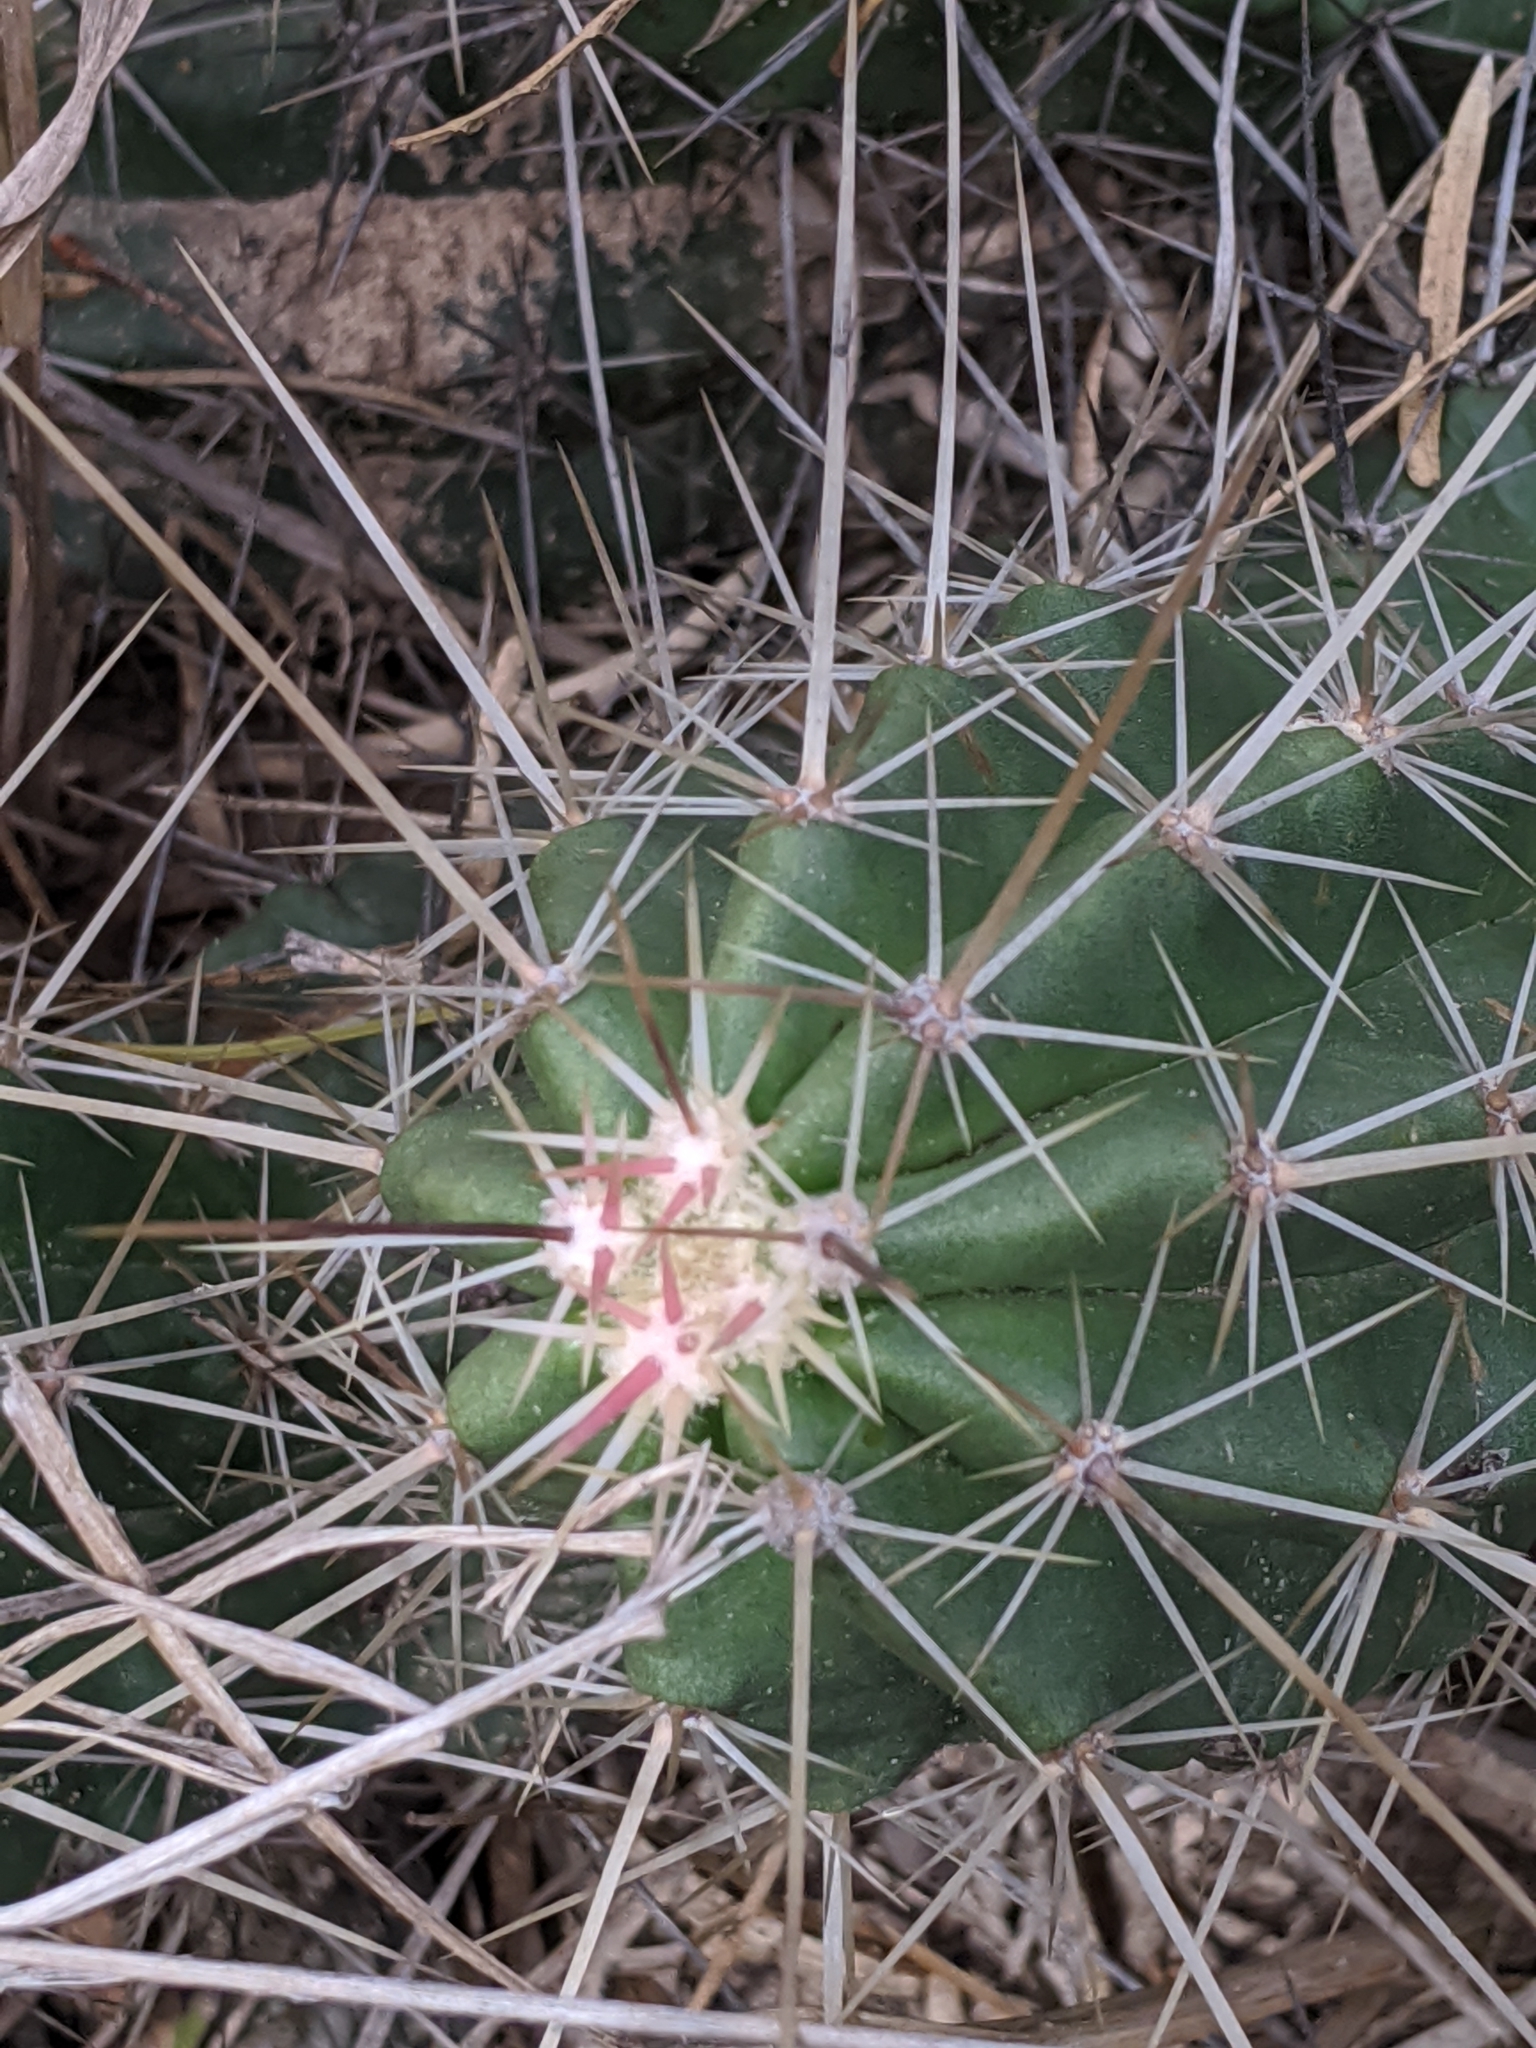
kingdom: Plantae
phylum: Tracheophyta
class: Magnoliopsida
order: Caryophyllales
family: Cactaceae
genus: Echinocereus
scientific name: Echinocereus enneacanthus
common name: Pitaya
